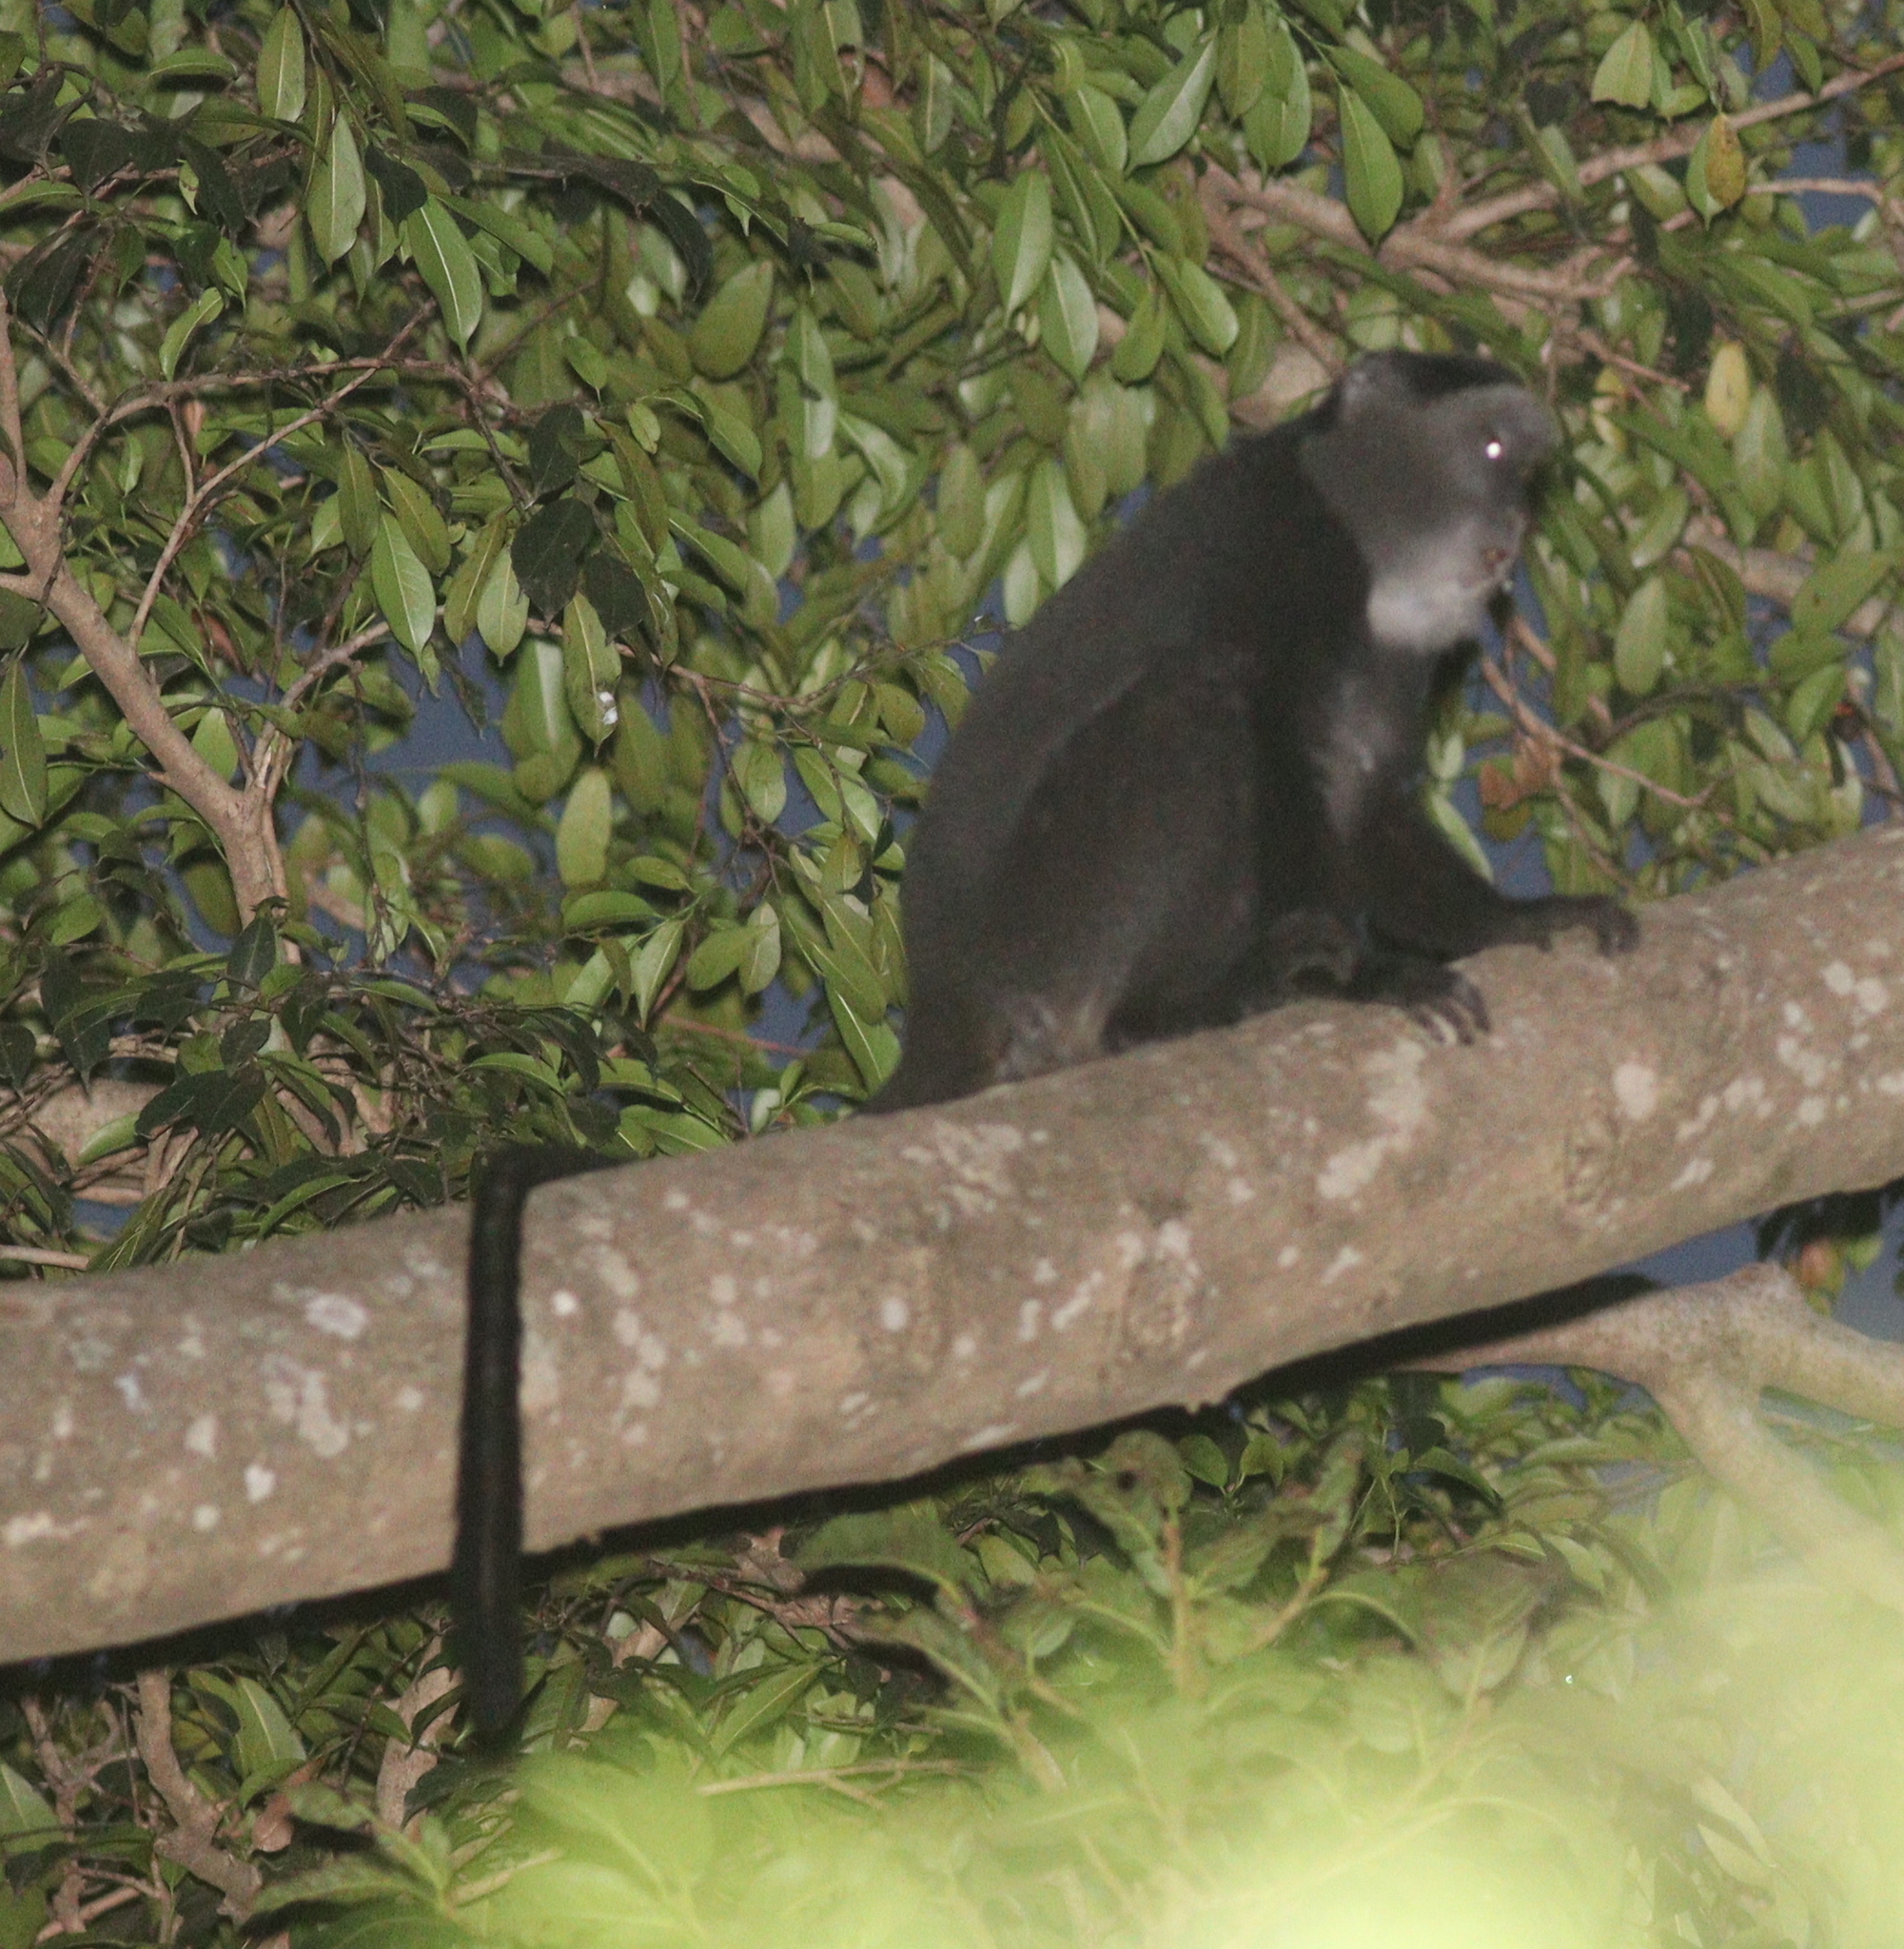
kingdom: Animalia
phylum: Chordata
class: Mammalia
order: Primates
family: Cercopithecidae
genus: Cercopithecus
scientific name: Cercopithecus mitis
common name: Blue monkey
